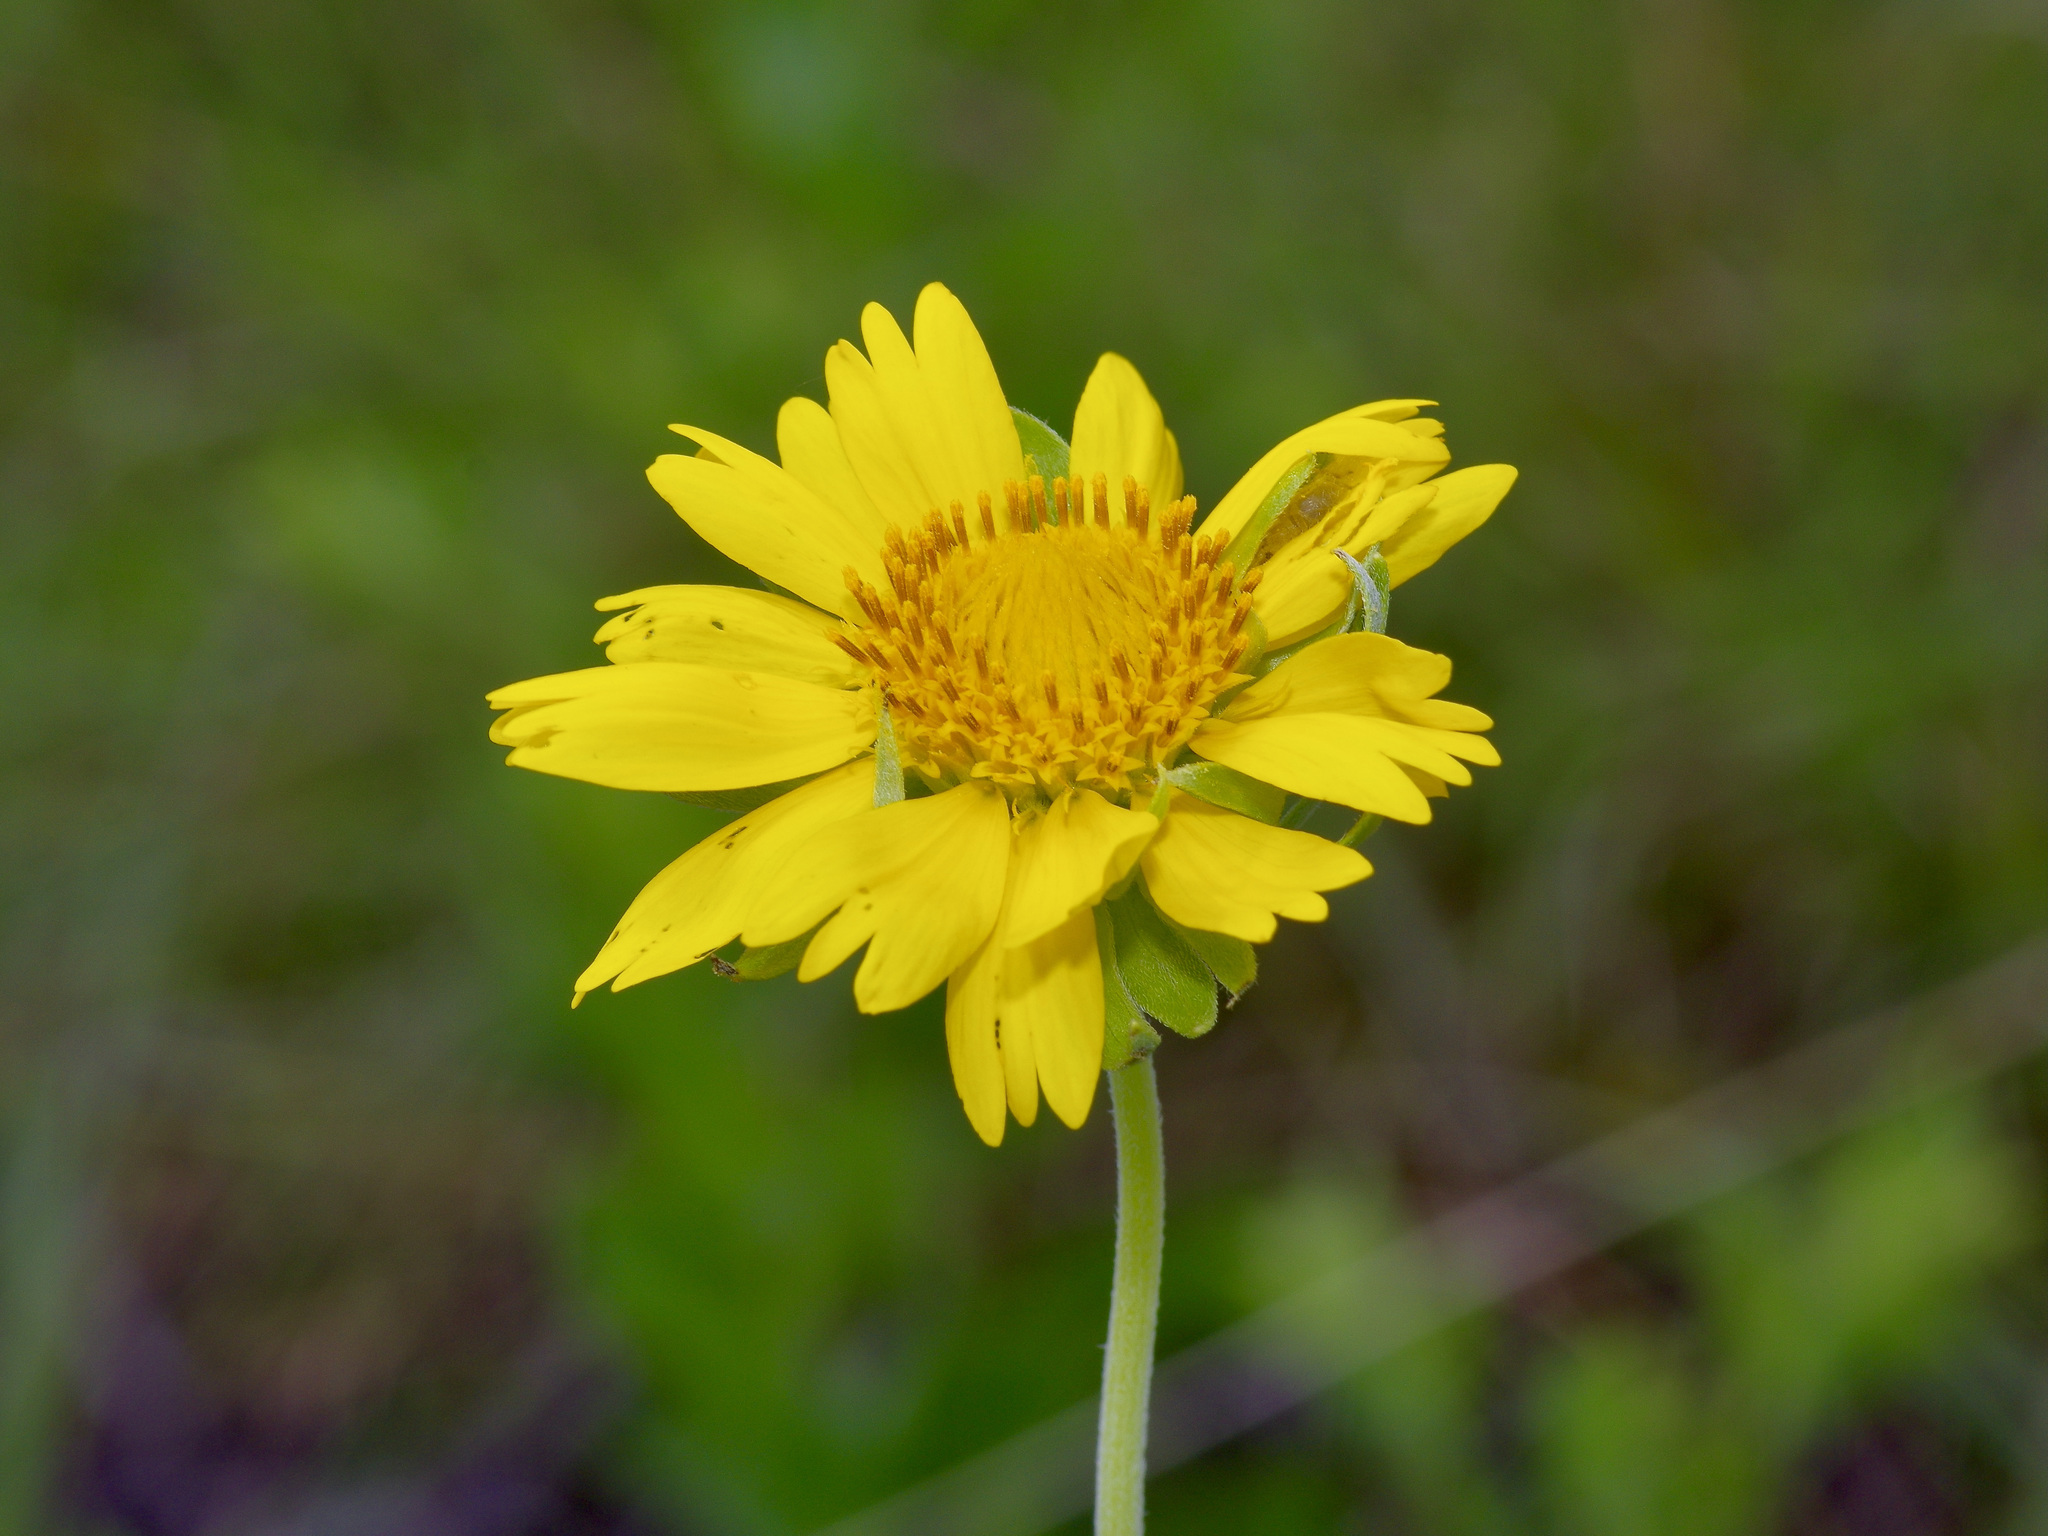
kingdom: Plantae
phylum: Tracheophyta
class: Magnoliopsida
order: Asterales
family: Asteraceae
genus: Verbesina
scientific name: Verbesina encelioides
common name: Golden crownbeard
